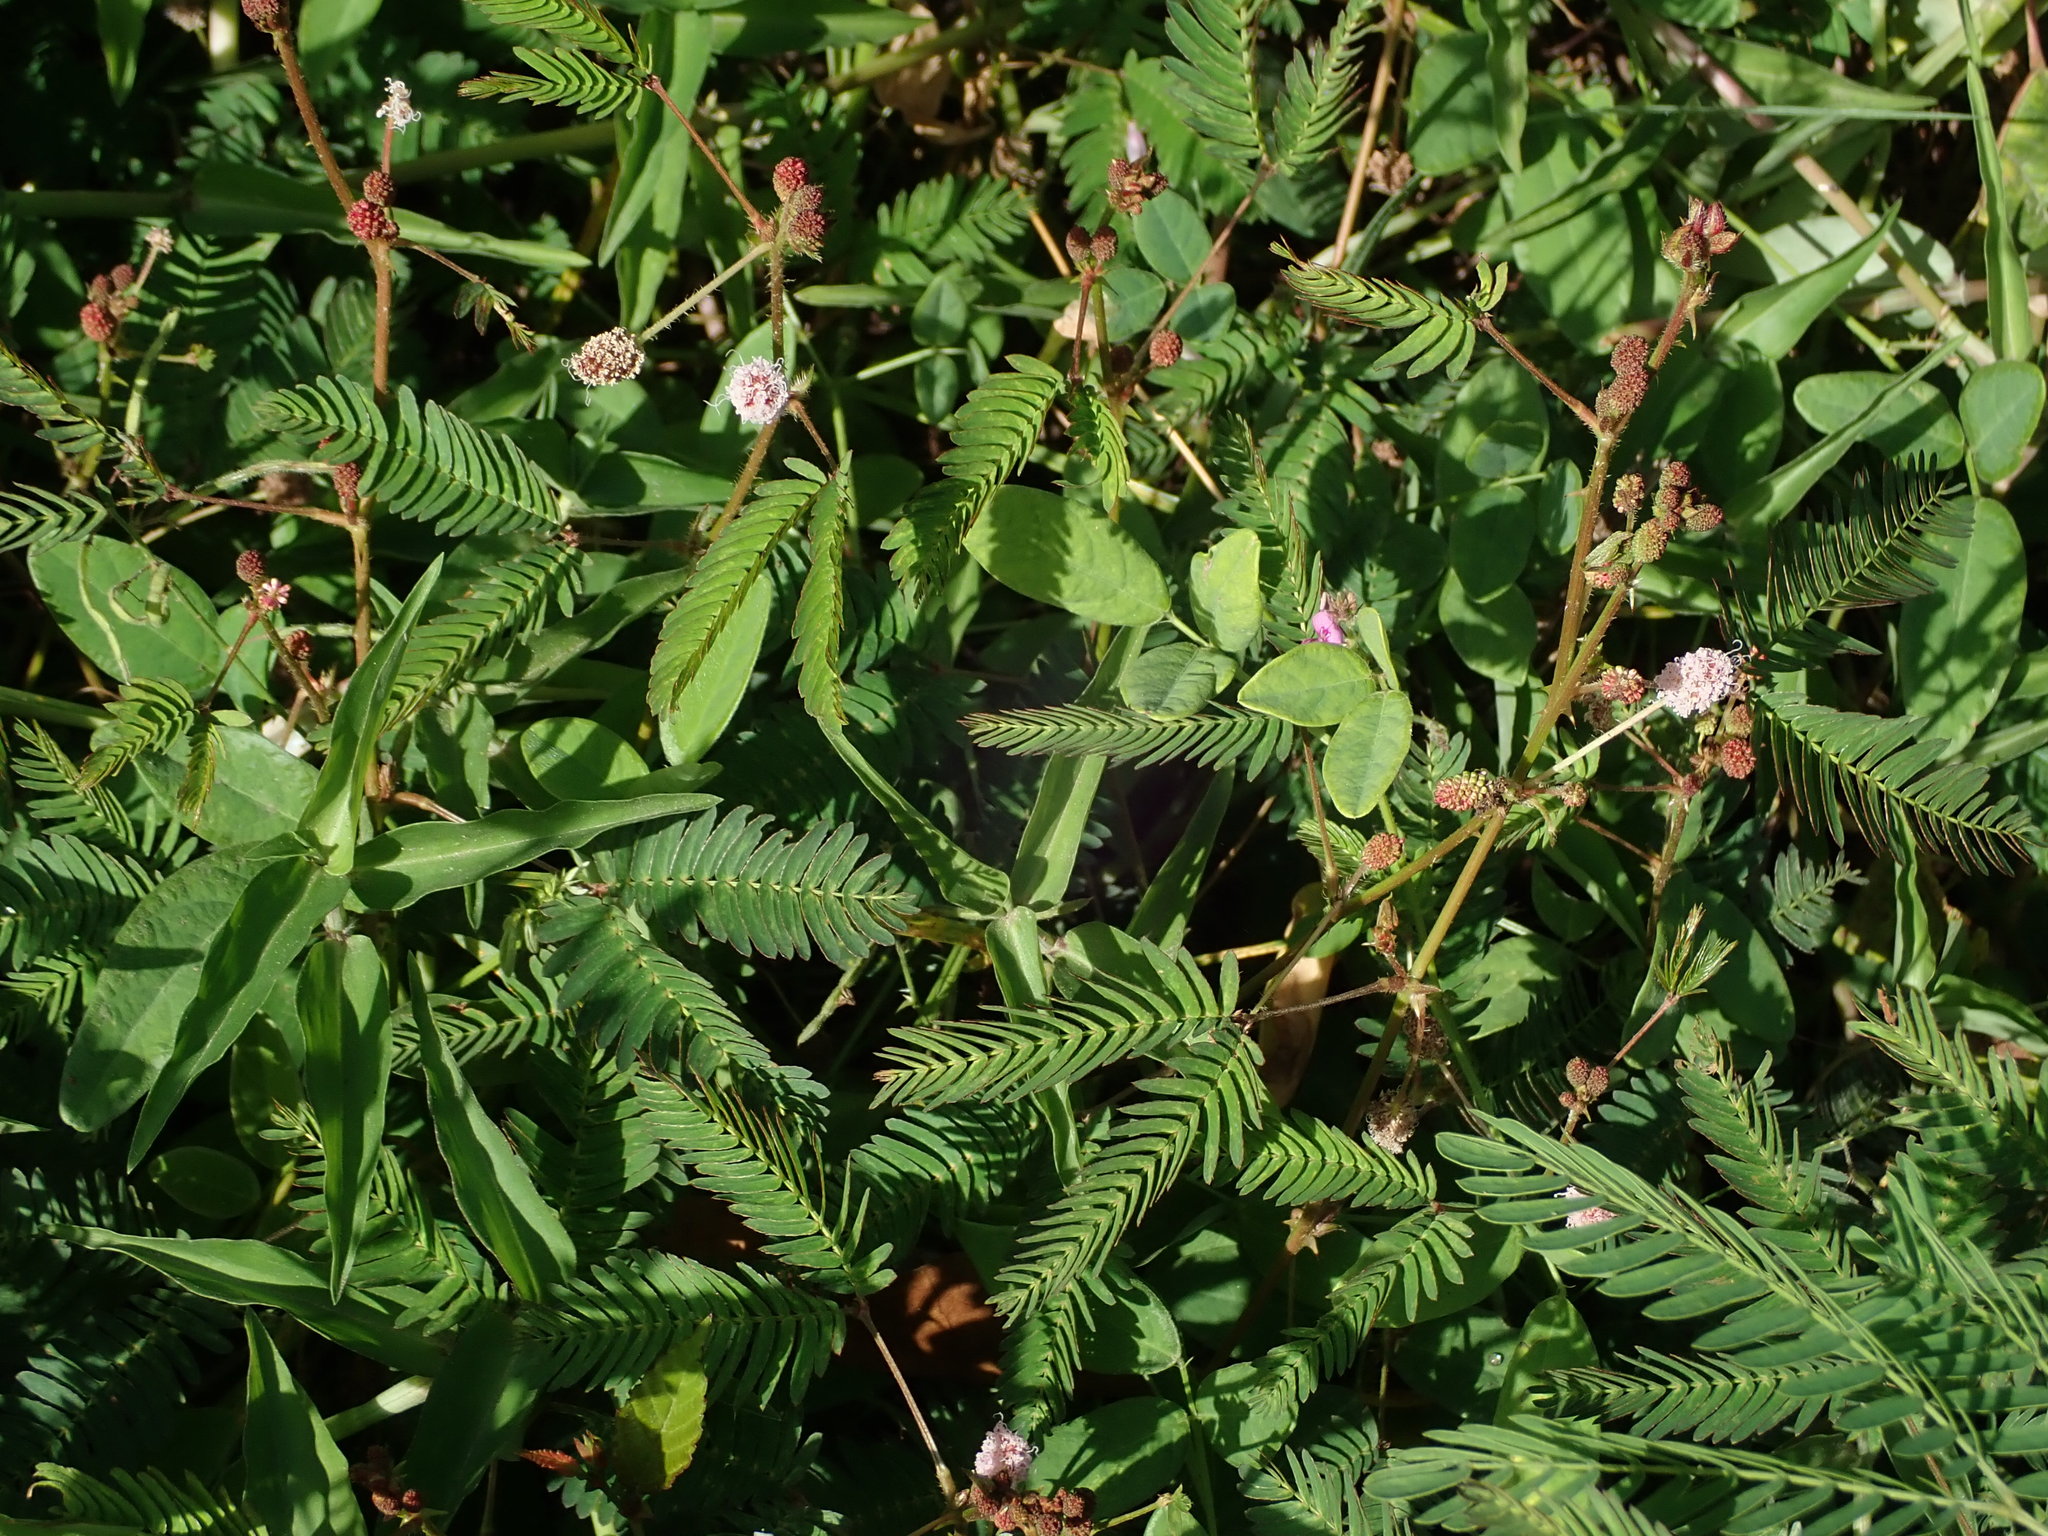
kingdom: Plantae
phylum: Tracheophyta
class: Magnoliopsida
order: Fabales
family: Fabaceae
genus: Mimosa
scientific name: Mimosa pudica
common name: Sensitive plant
